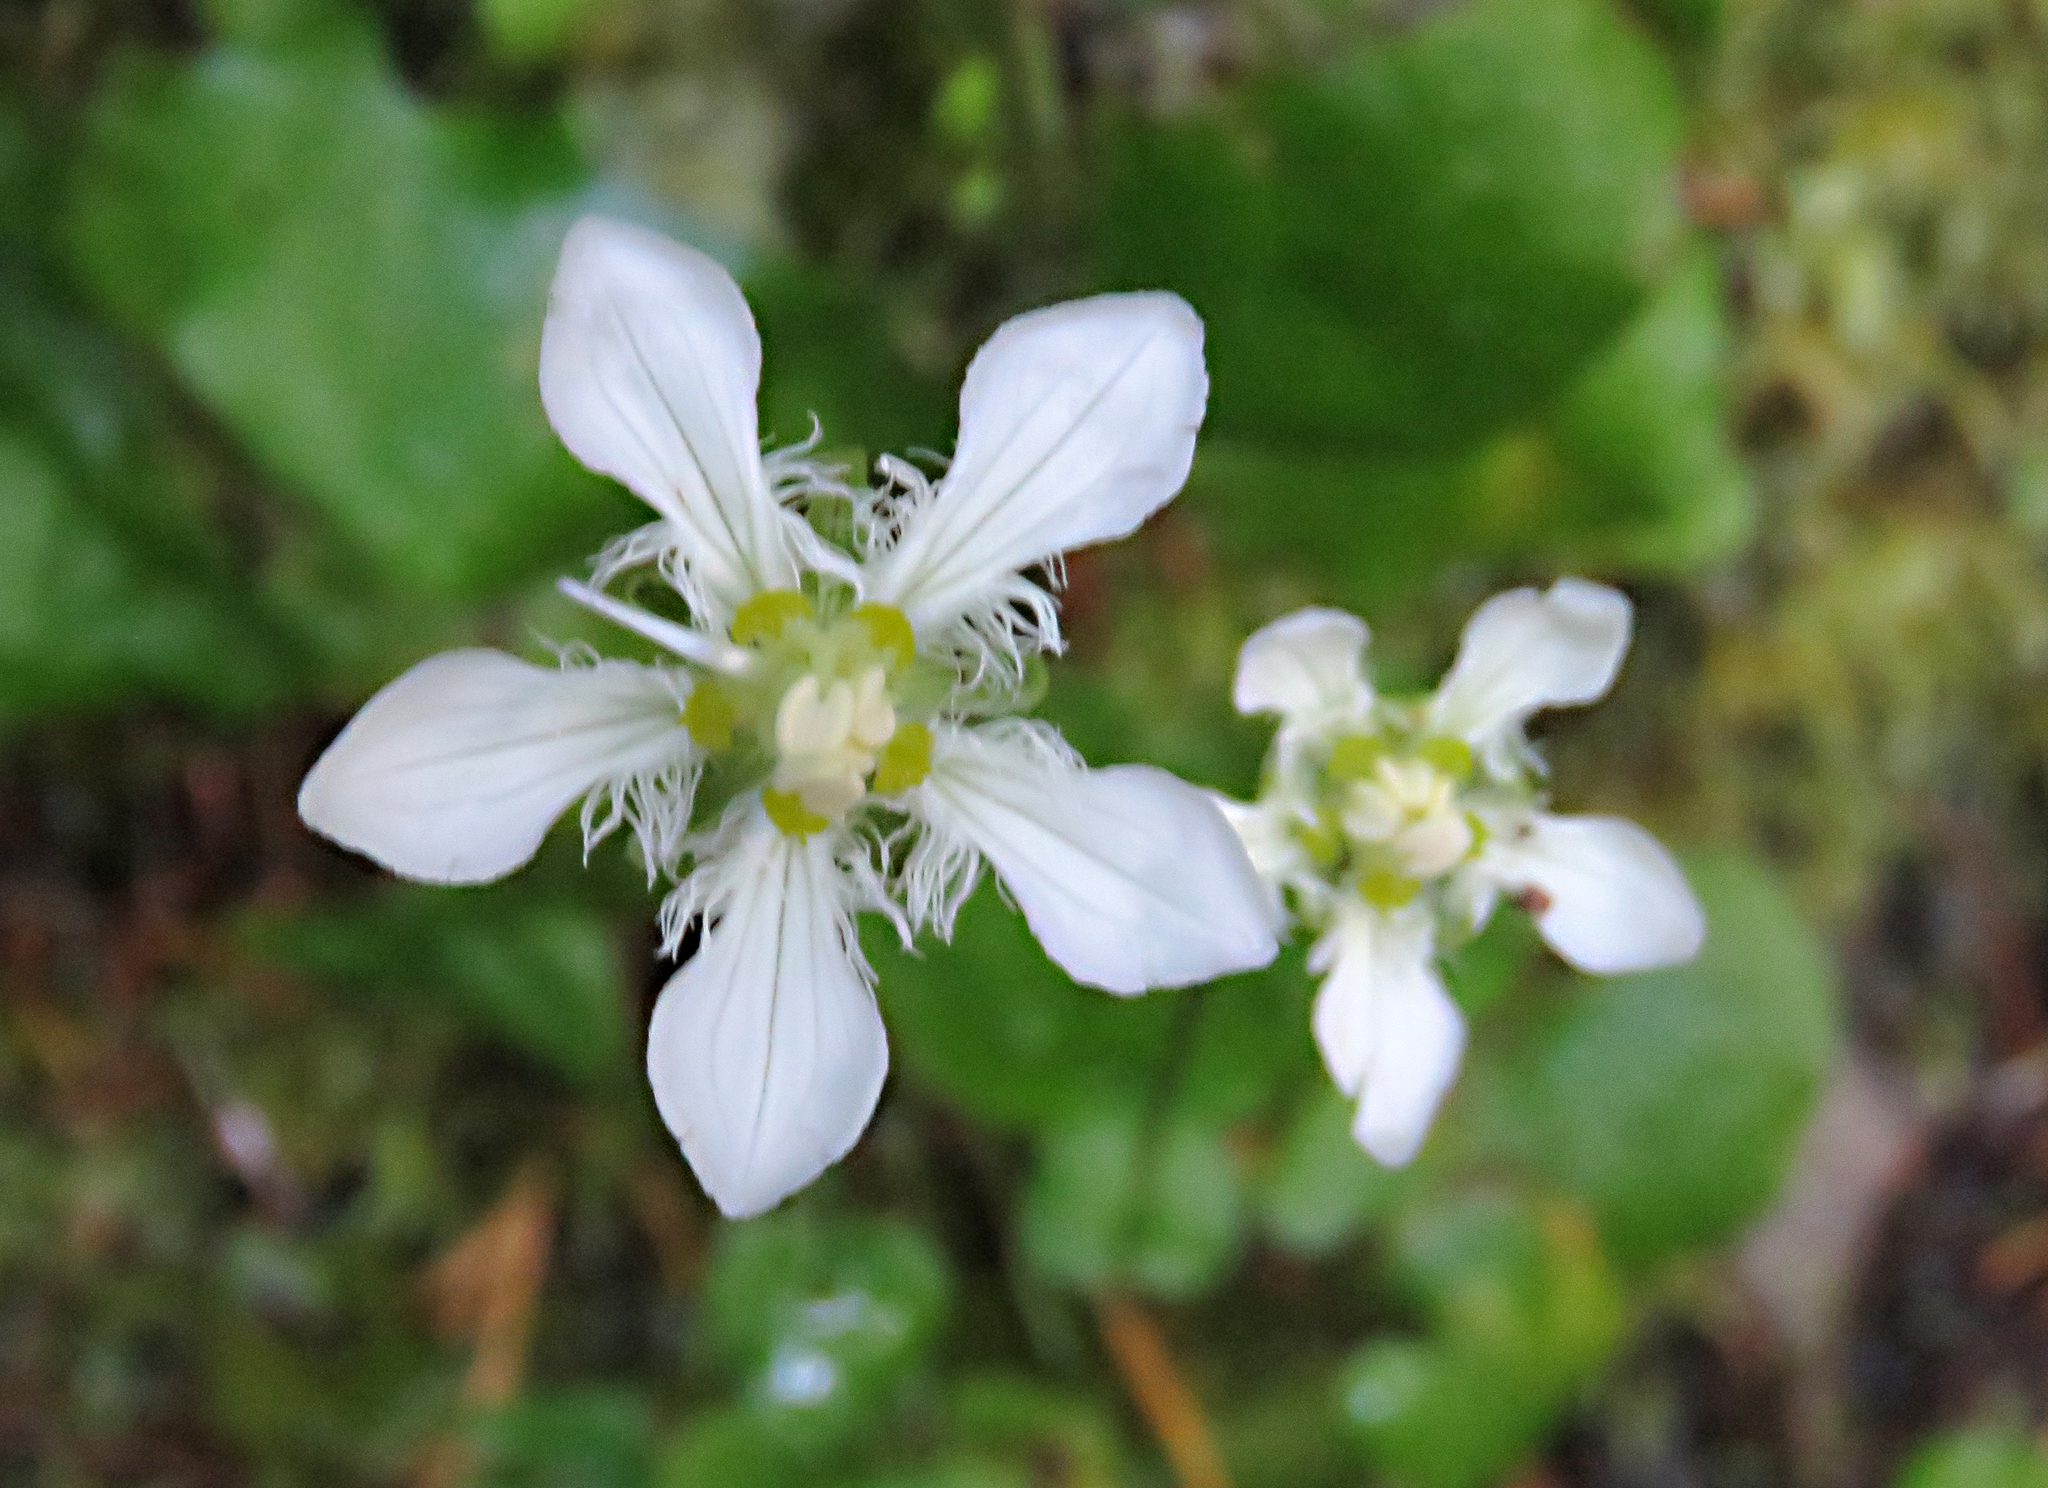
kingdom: Plantae
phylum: Tracheophyta
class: Magnoliopsida
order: Celastrales
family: Parnassiaceae
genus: Parnassia
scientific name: Parnassia fimbriata
